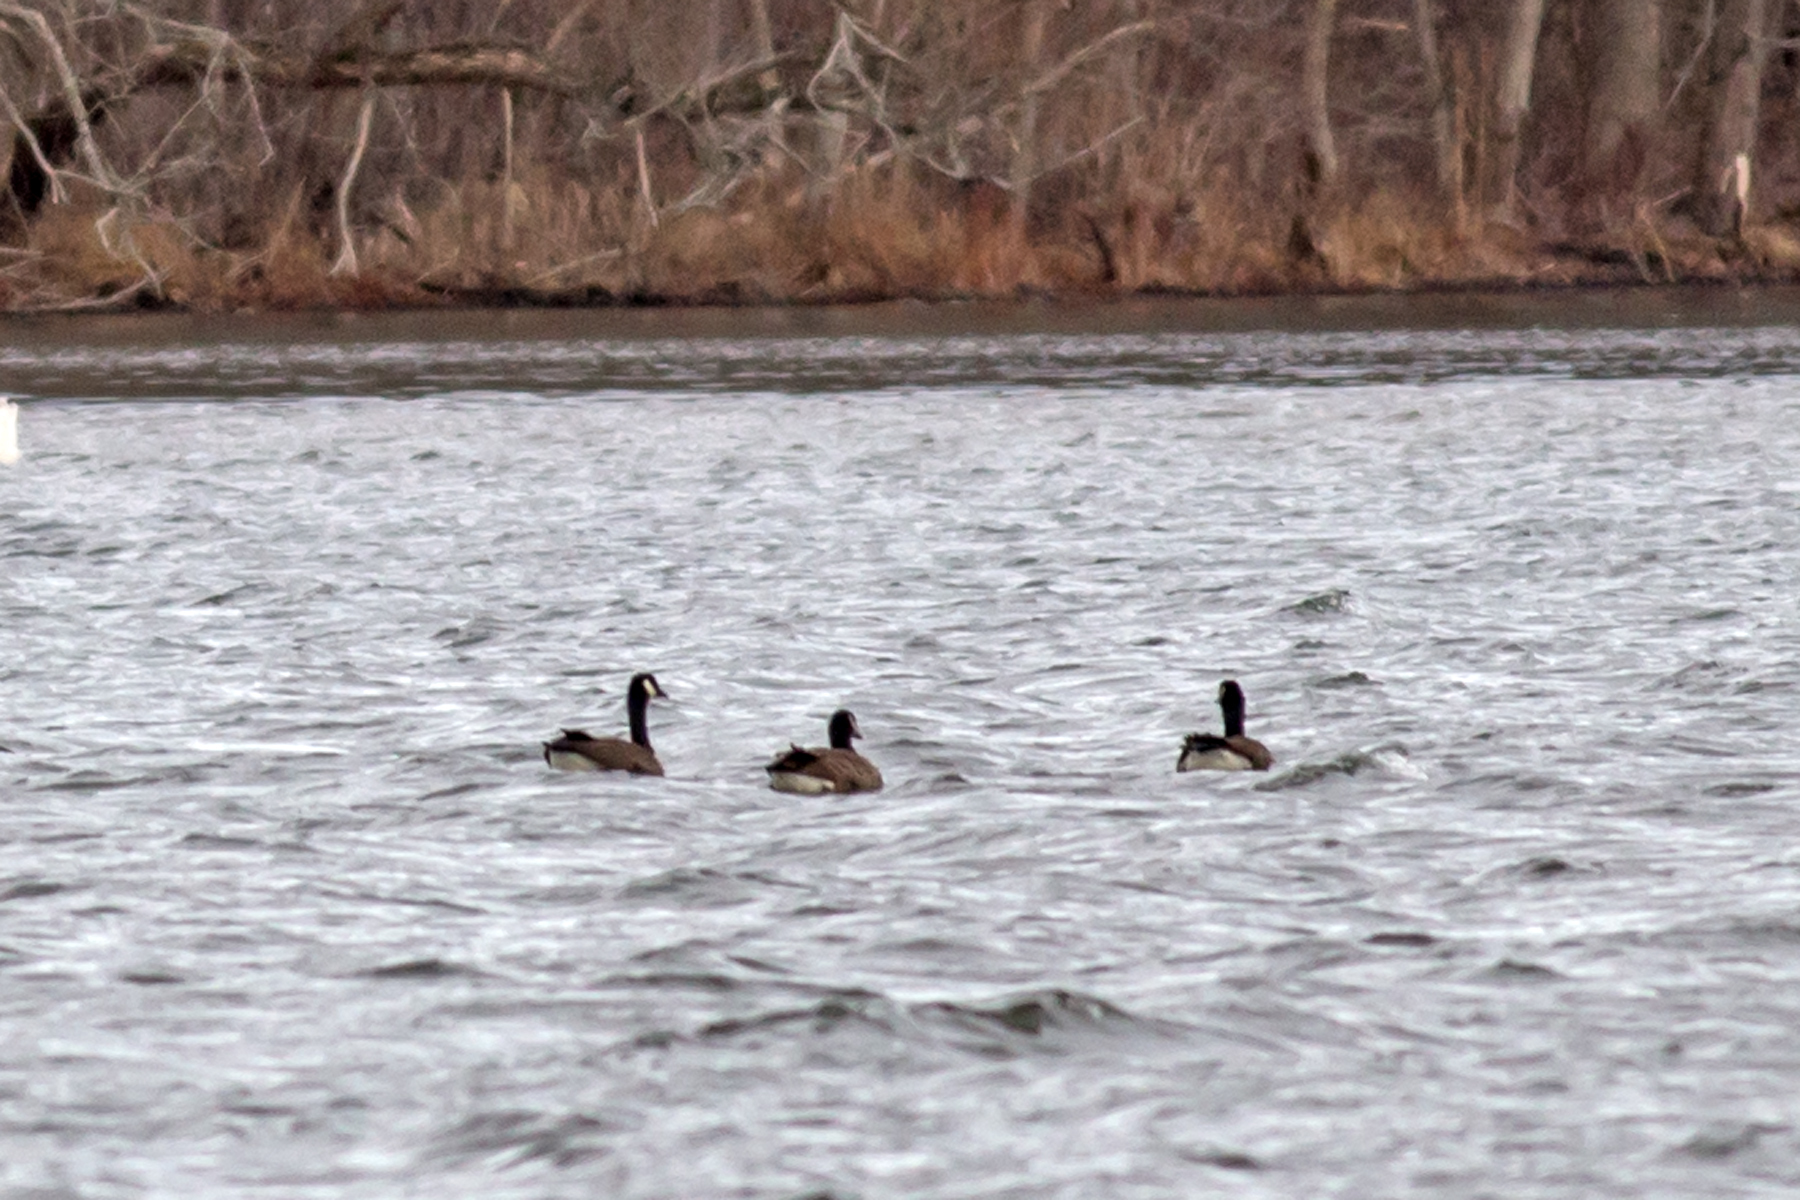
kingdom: Animalia
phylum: Chordata
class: Aves
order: Anseriformes
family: Anatidae
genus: Branta
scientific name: Branta canadensis
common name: Canada goose
